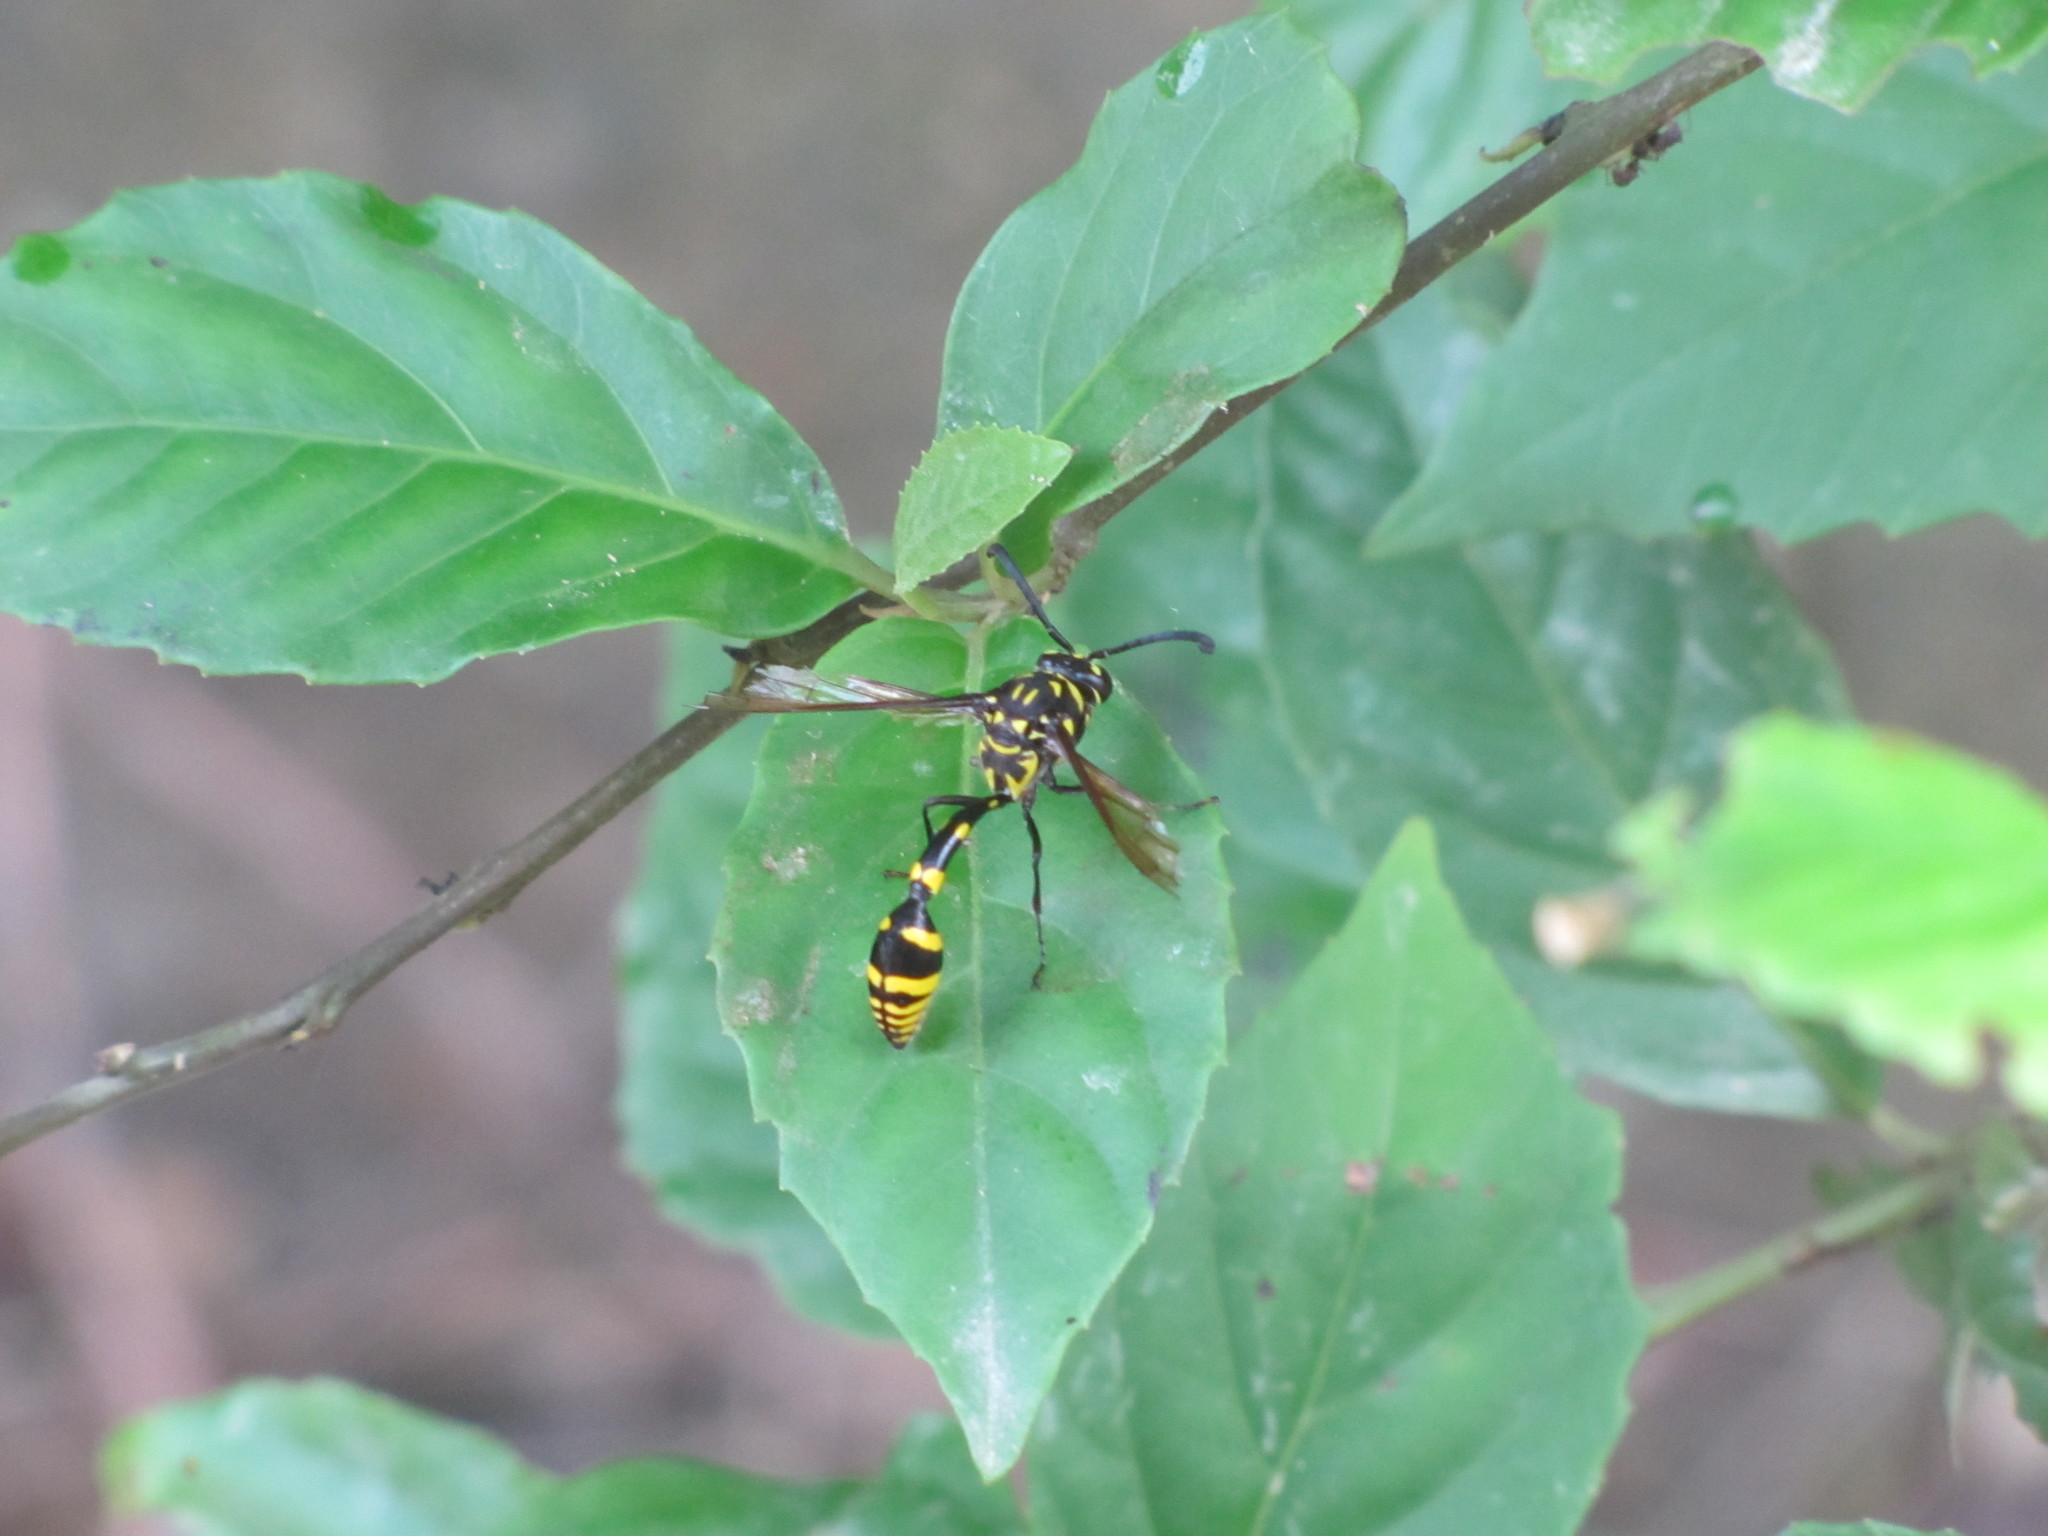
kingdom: Animalia
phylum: Arthropoda
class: Insecta
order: Hymenoptera
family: Eumenidae
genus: Phimenes
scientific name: Phimenes flavopictus
